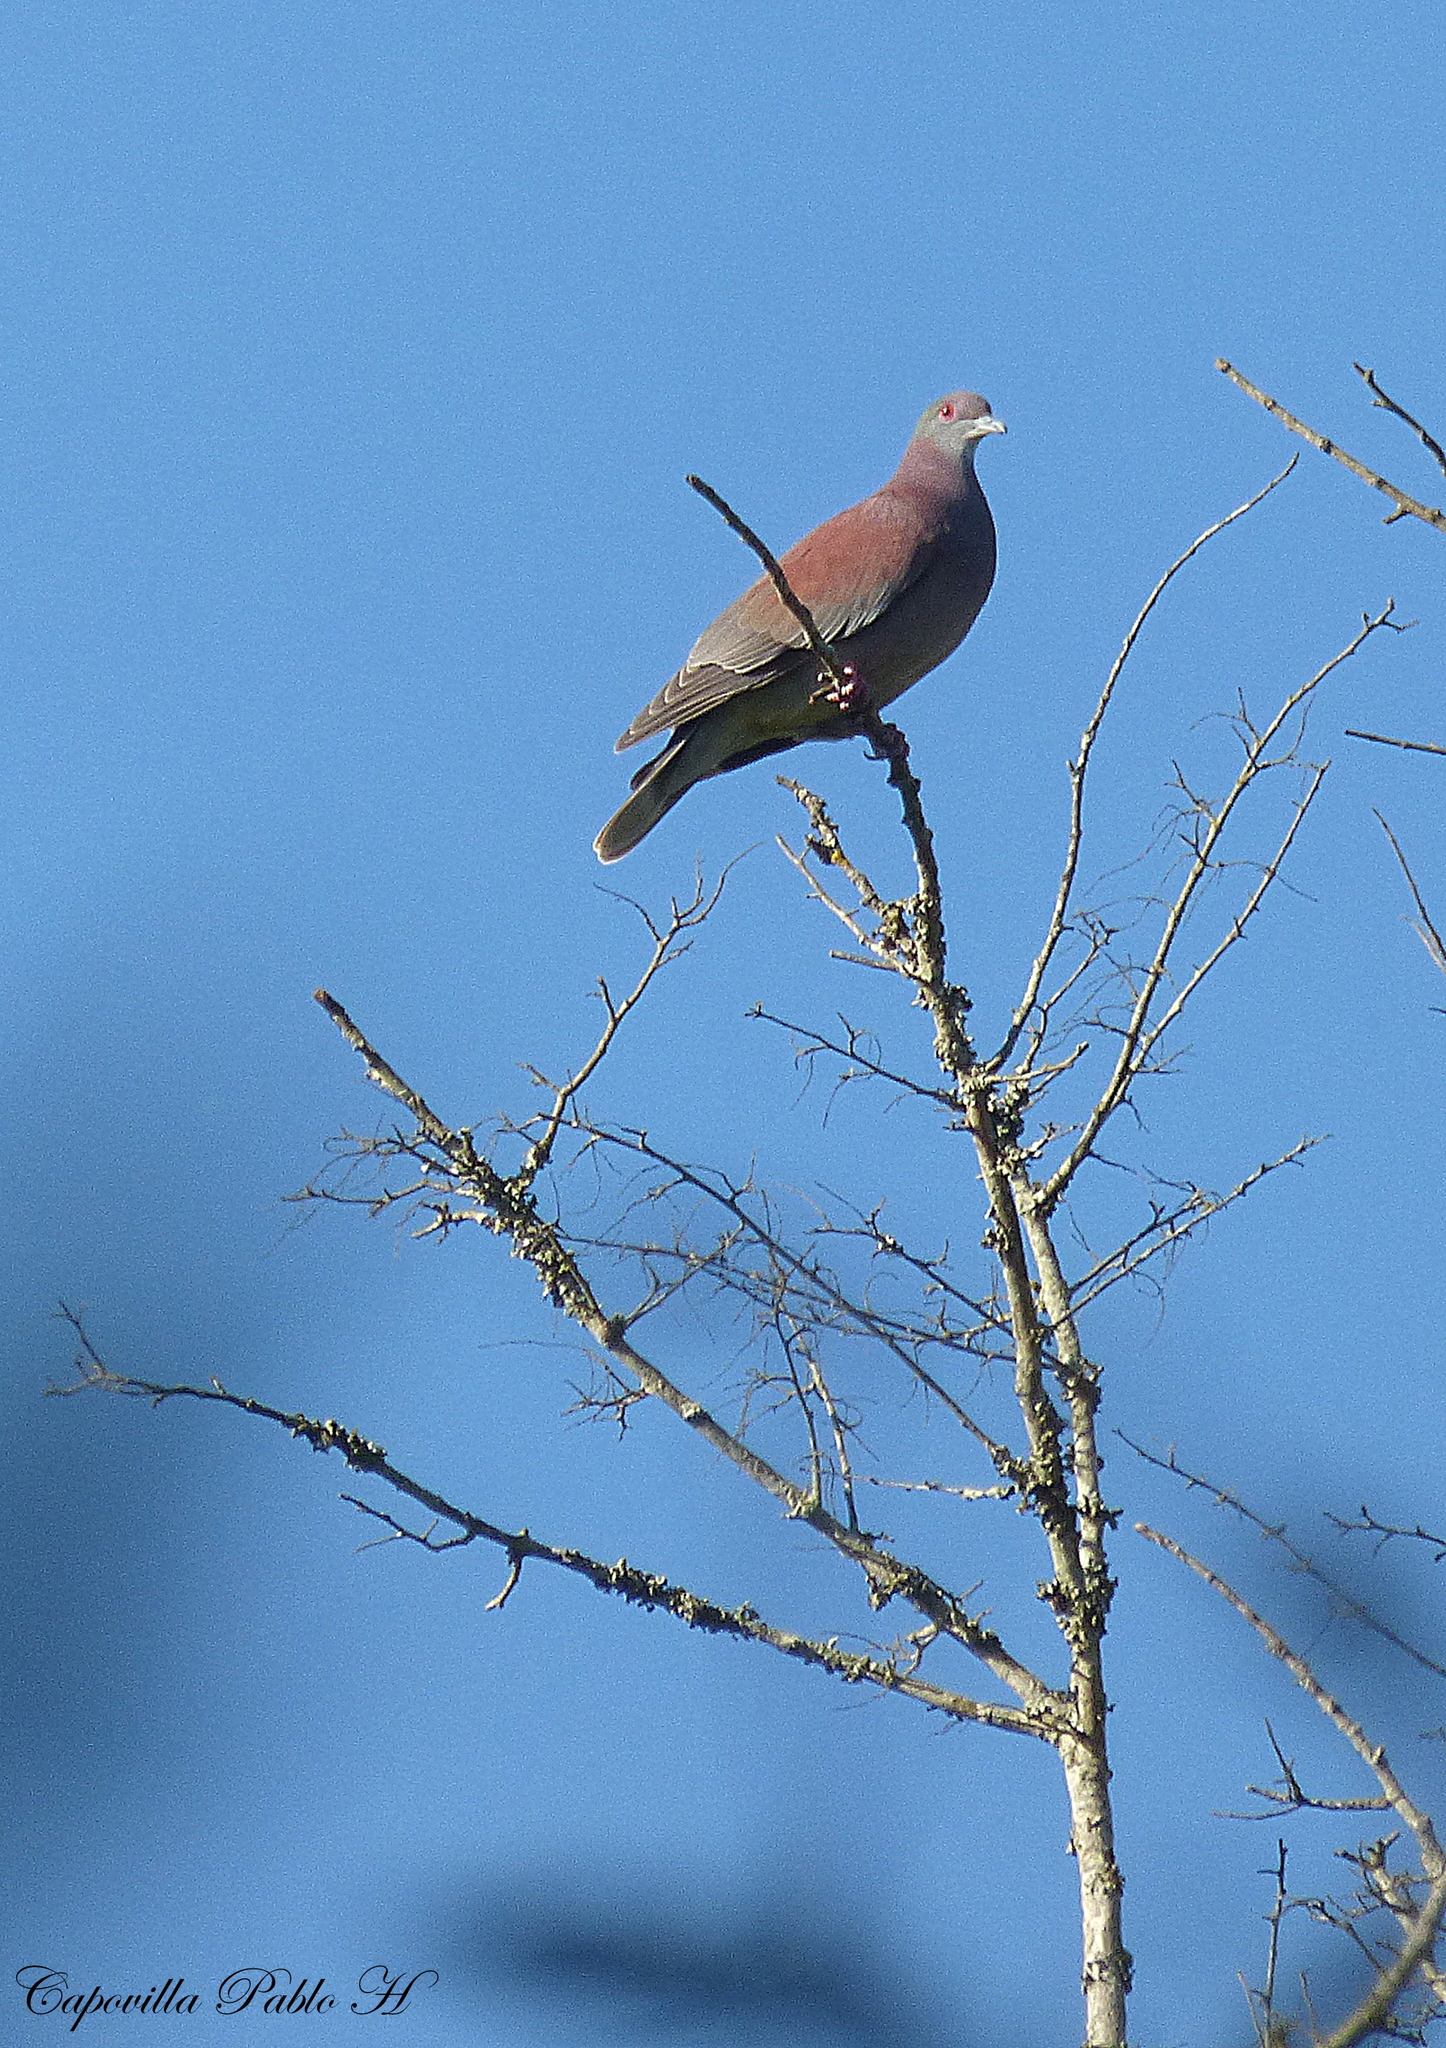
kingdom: Animalia
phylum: Chordata
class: Aves
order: Columbiformes
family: Columbidae
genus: Patagioenas
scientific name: Patagioenas cayennensis
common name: Pale-vented pigeon
